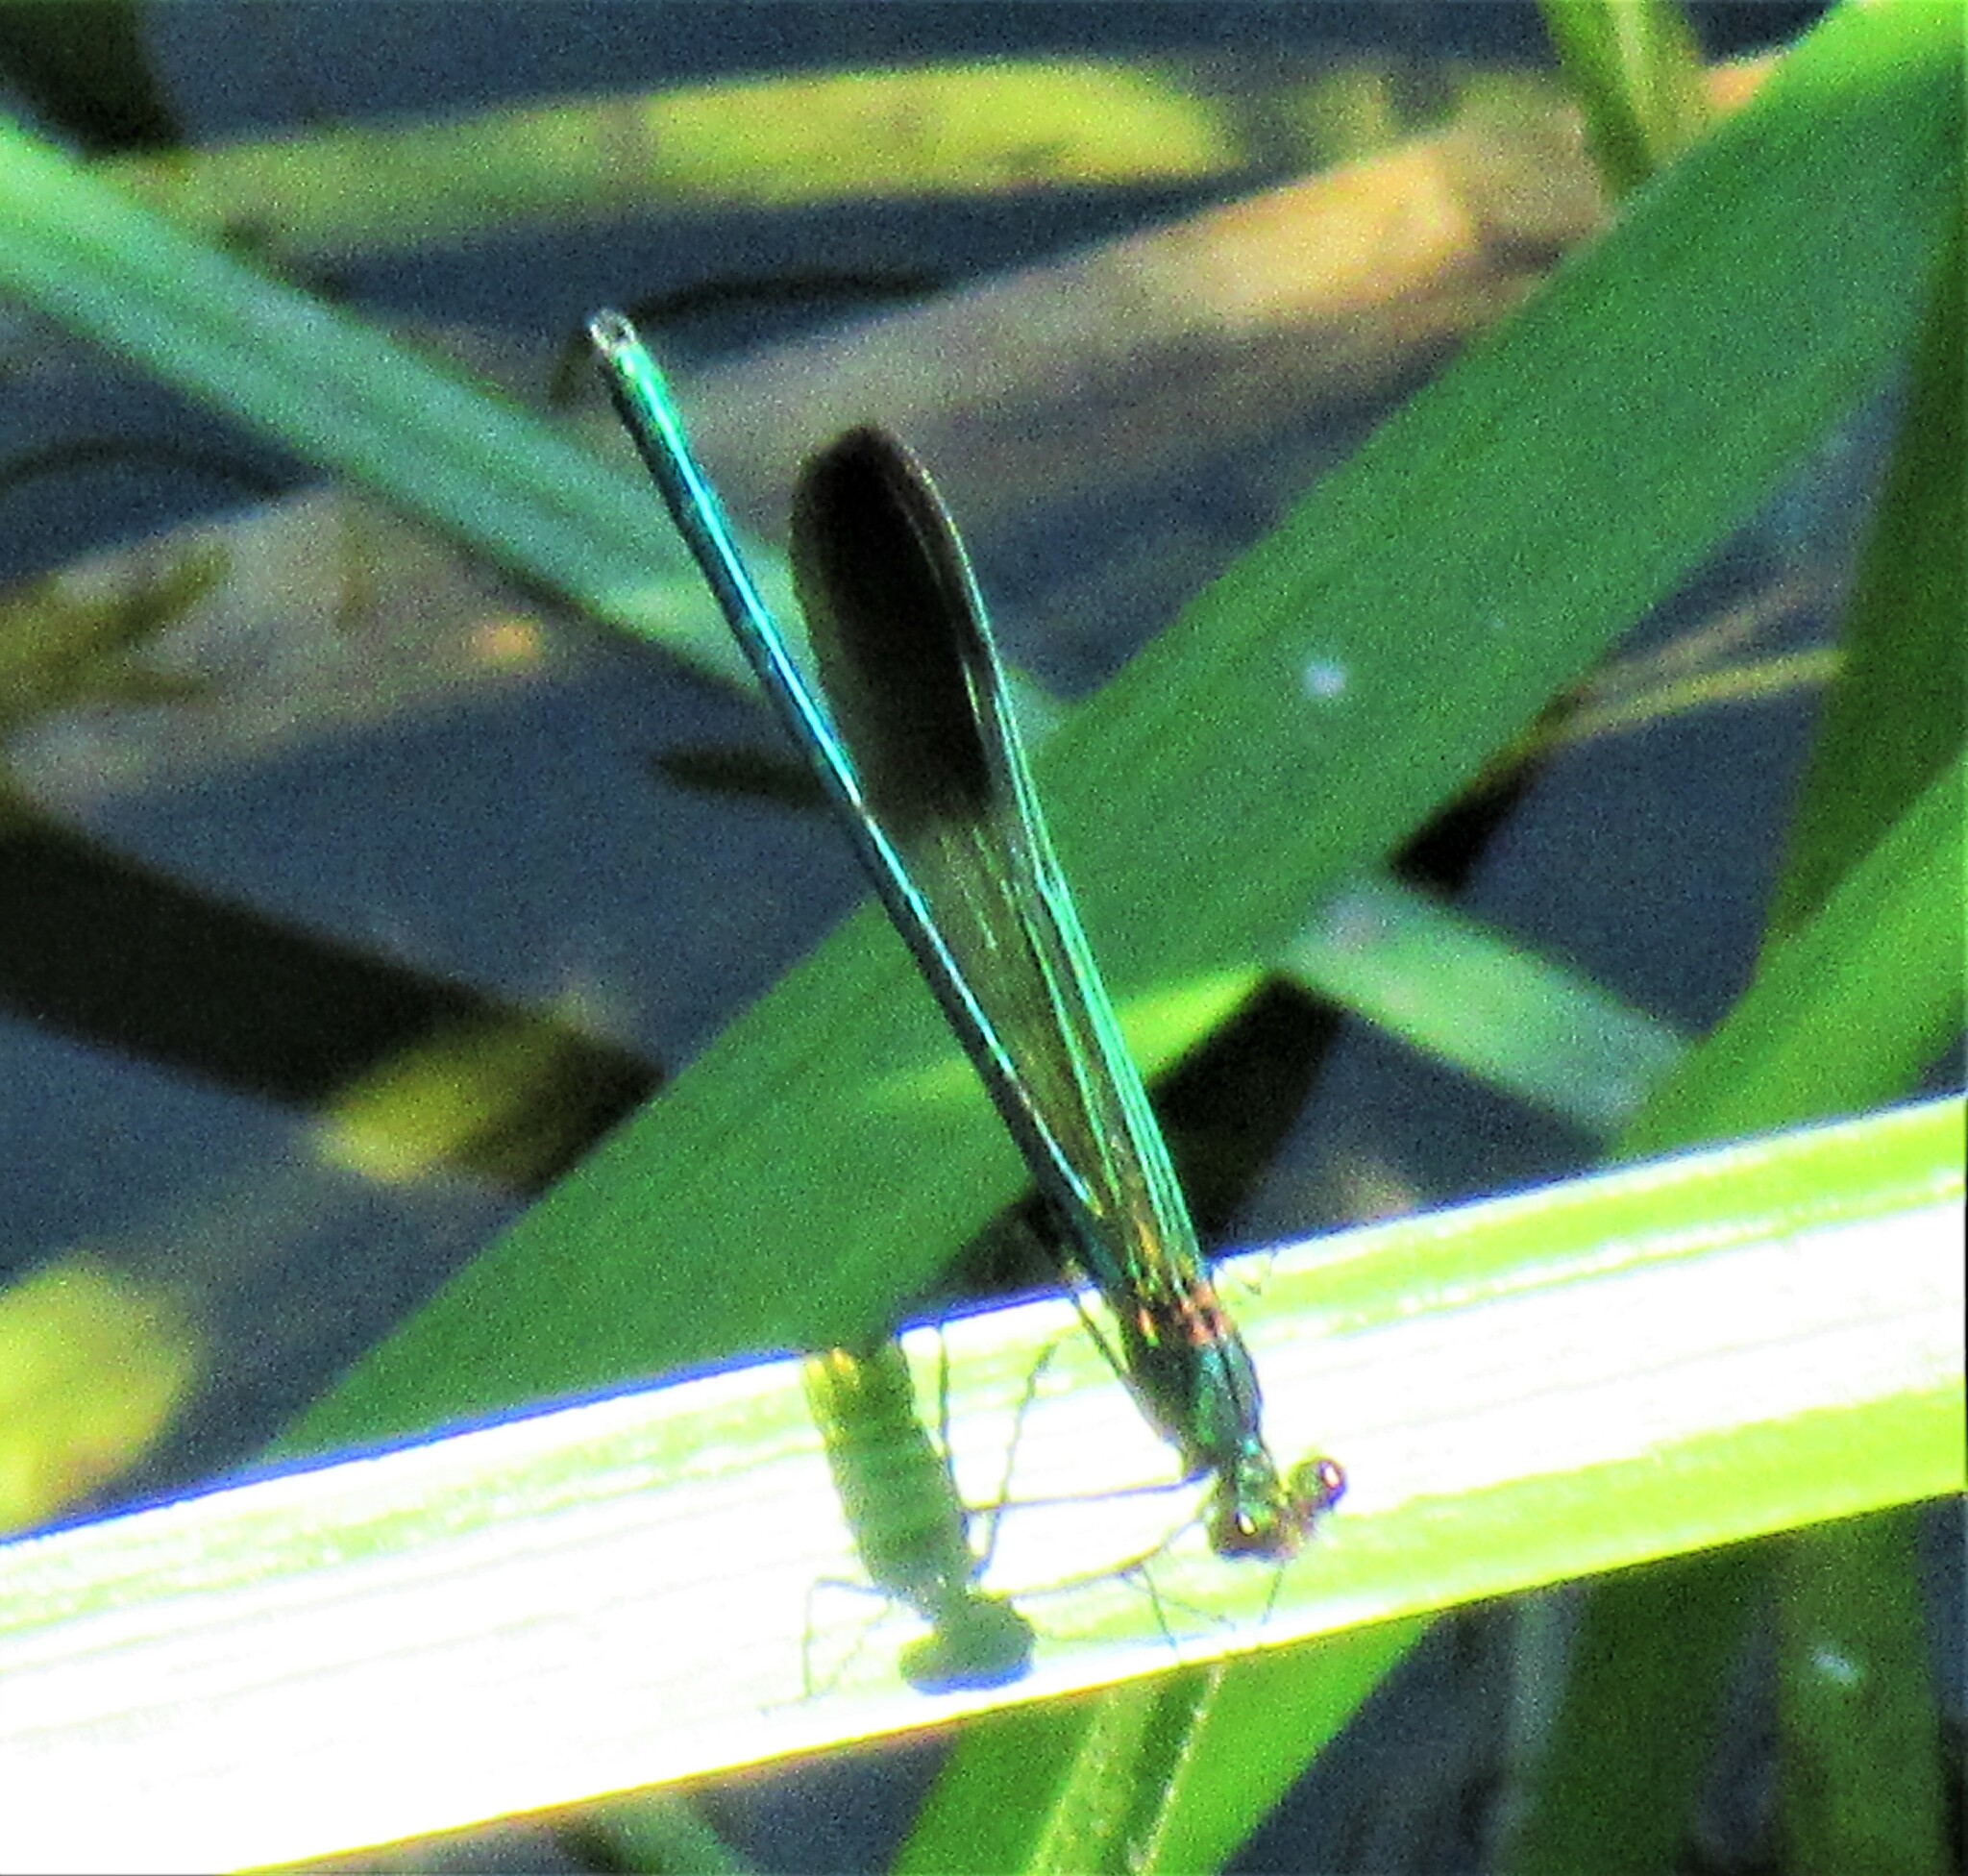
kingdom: Animalia
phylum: Arthropoda
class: Insecta
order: Odonata
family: Calopterygidae
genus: Calopteryx
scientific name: Calopteryx aequabilis
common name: River jewelwing
